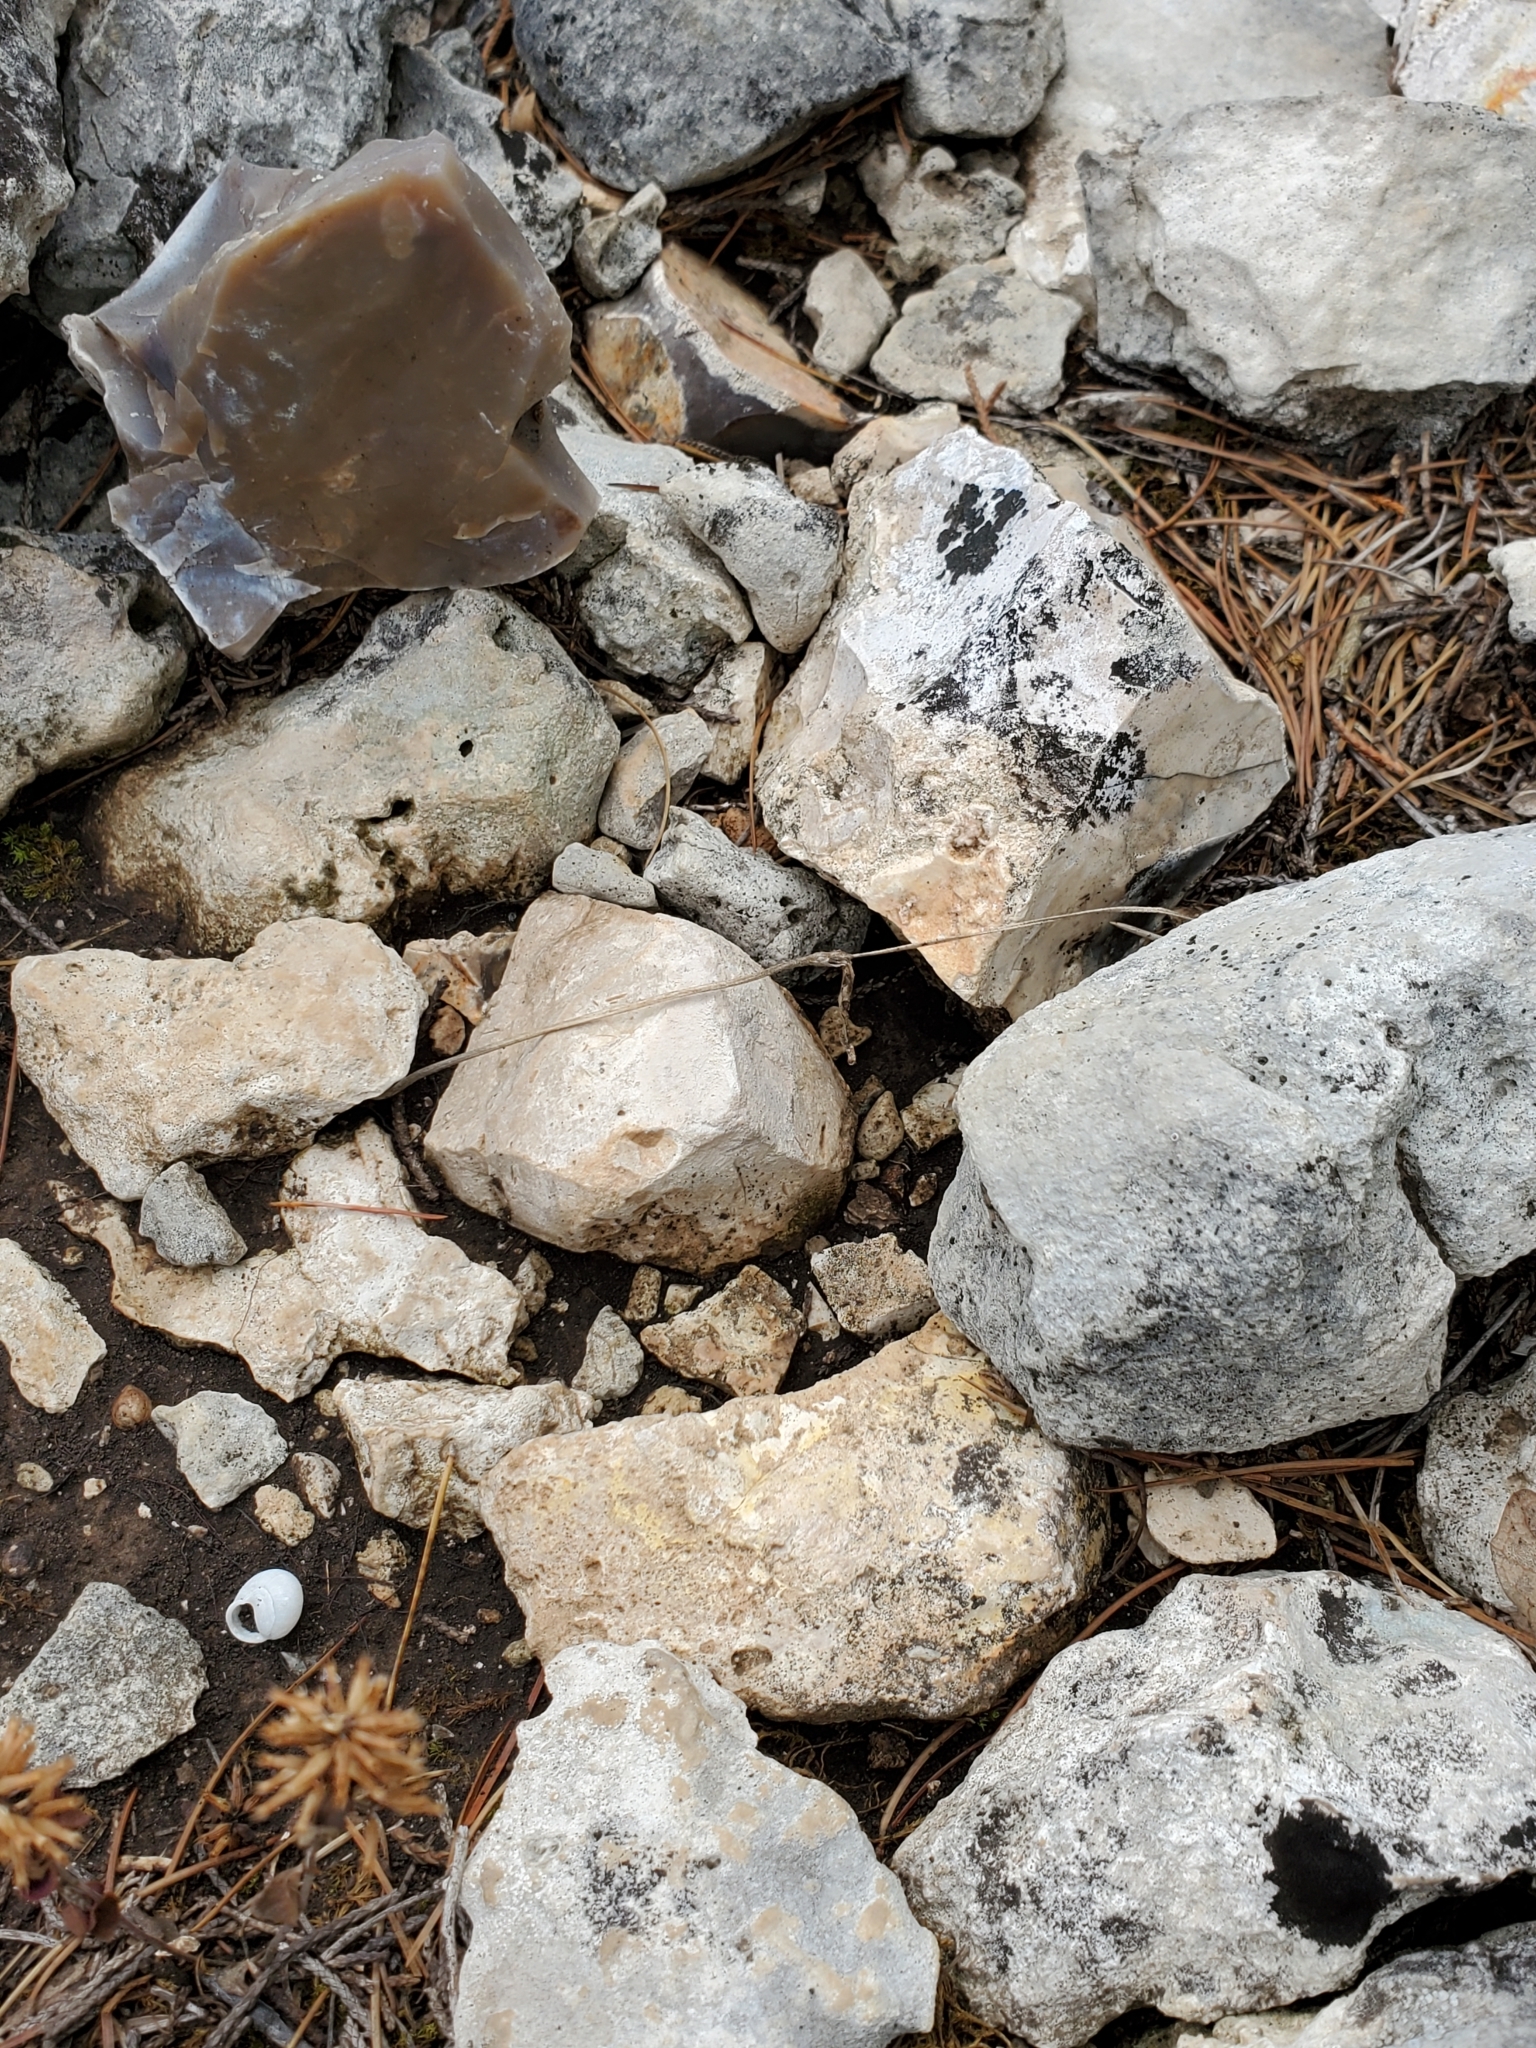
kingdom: Plantae
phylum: Tracheophyta
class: Magnoliopsida
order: Ranunculales
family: Ranunculaceae
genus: Anemone
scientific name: Anemone edwardsiana
